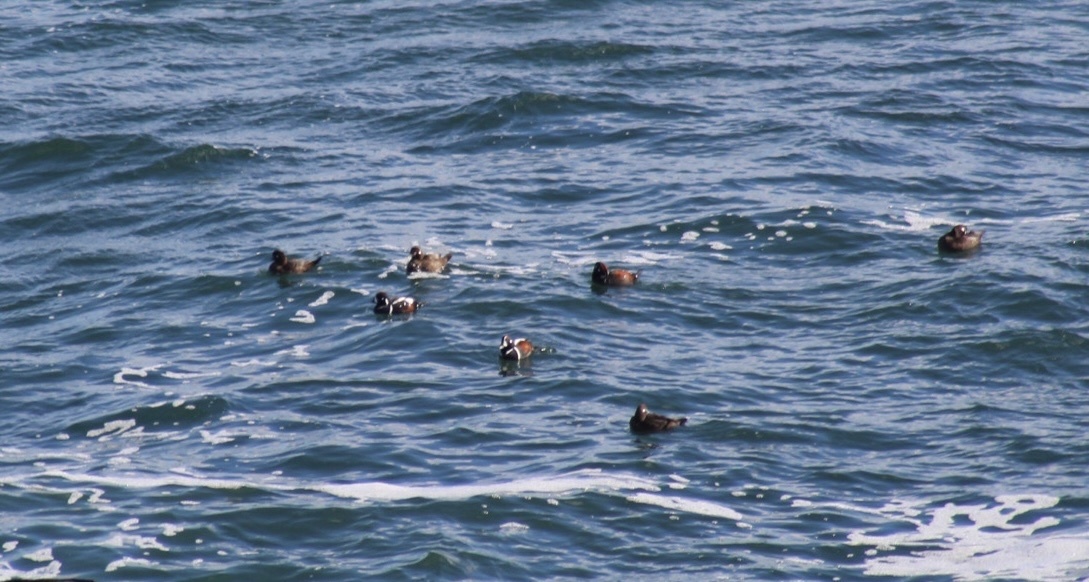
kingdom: Animalia
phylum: Chordata
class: Aves
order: Anseriformes
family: Anatidae
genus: Histrionicus
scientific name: Histrionicus histrionicus
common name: Harlequin duck
